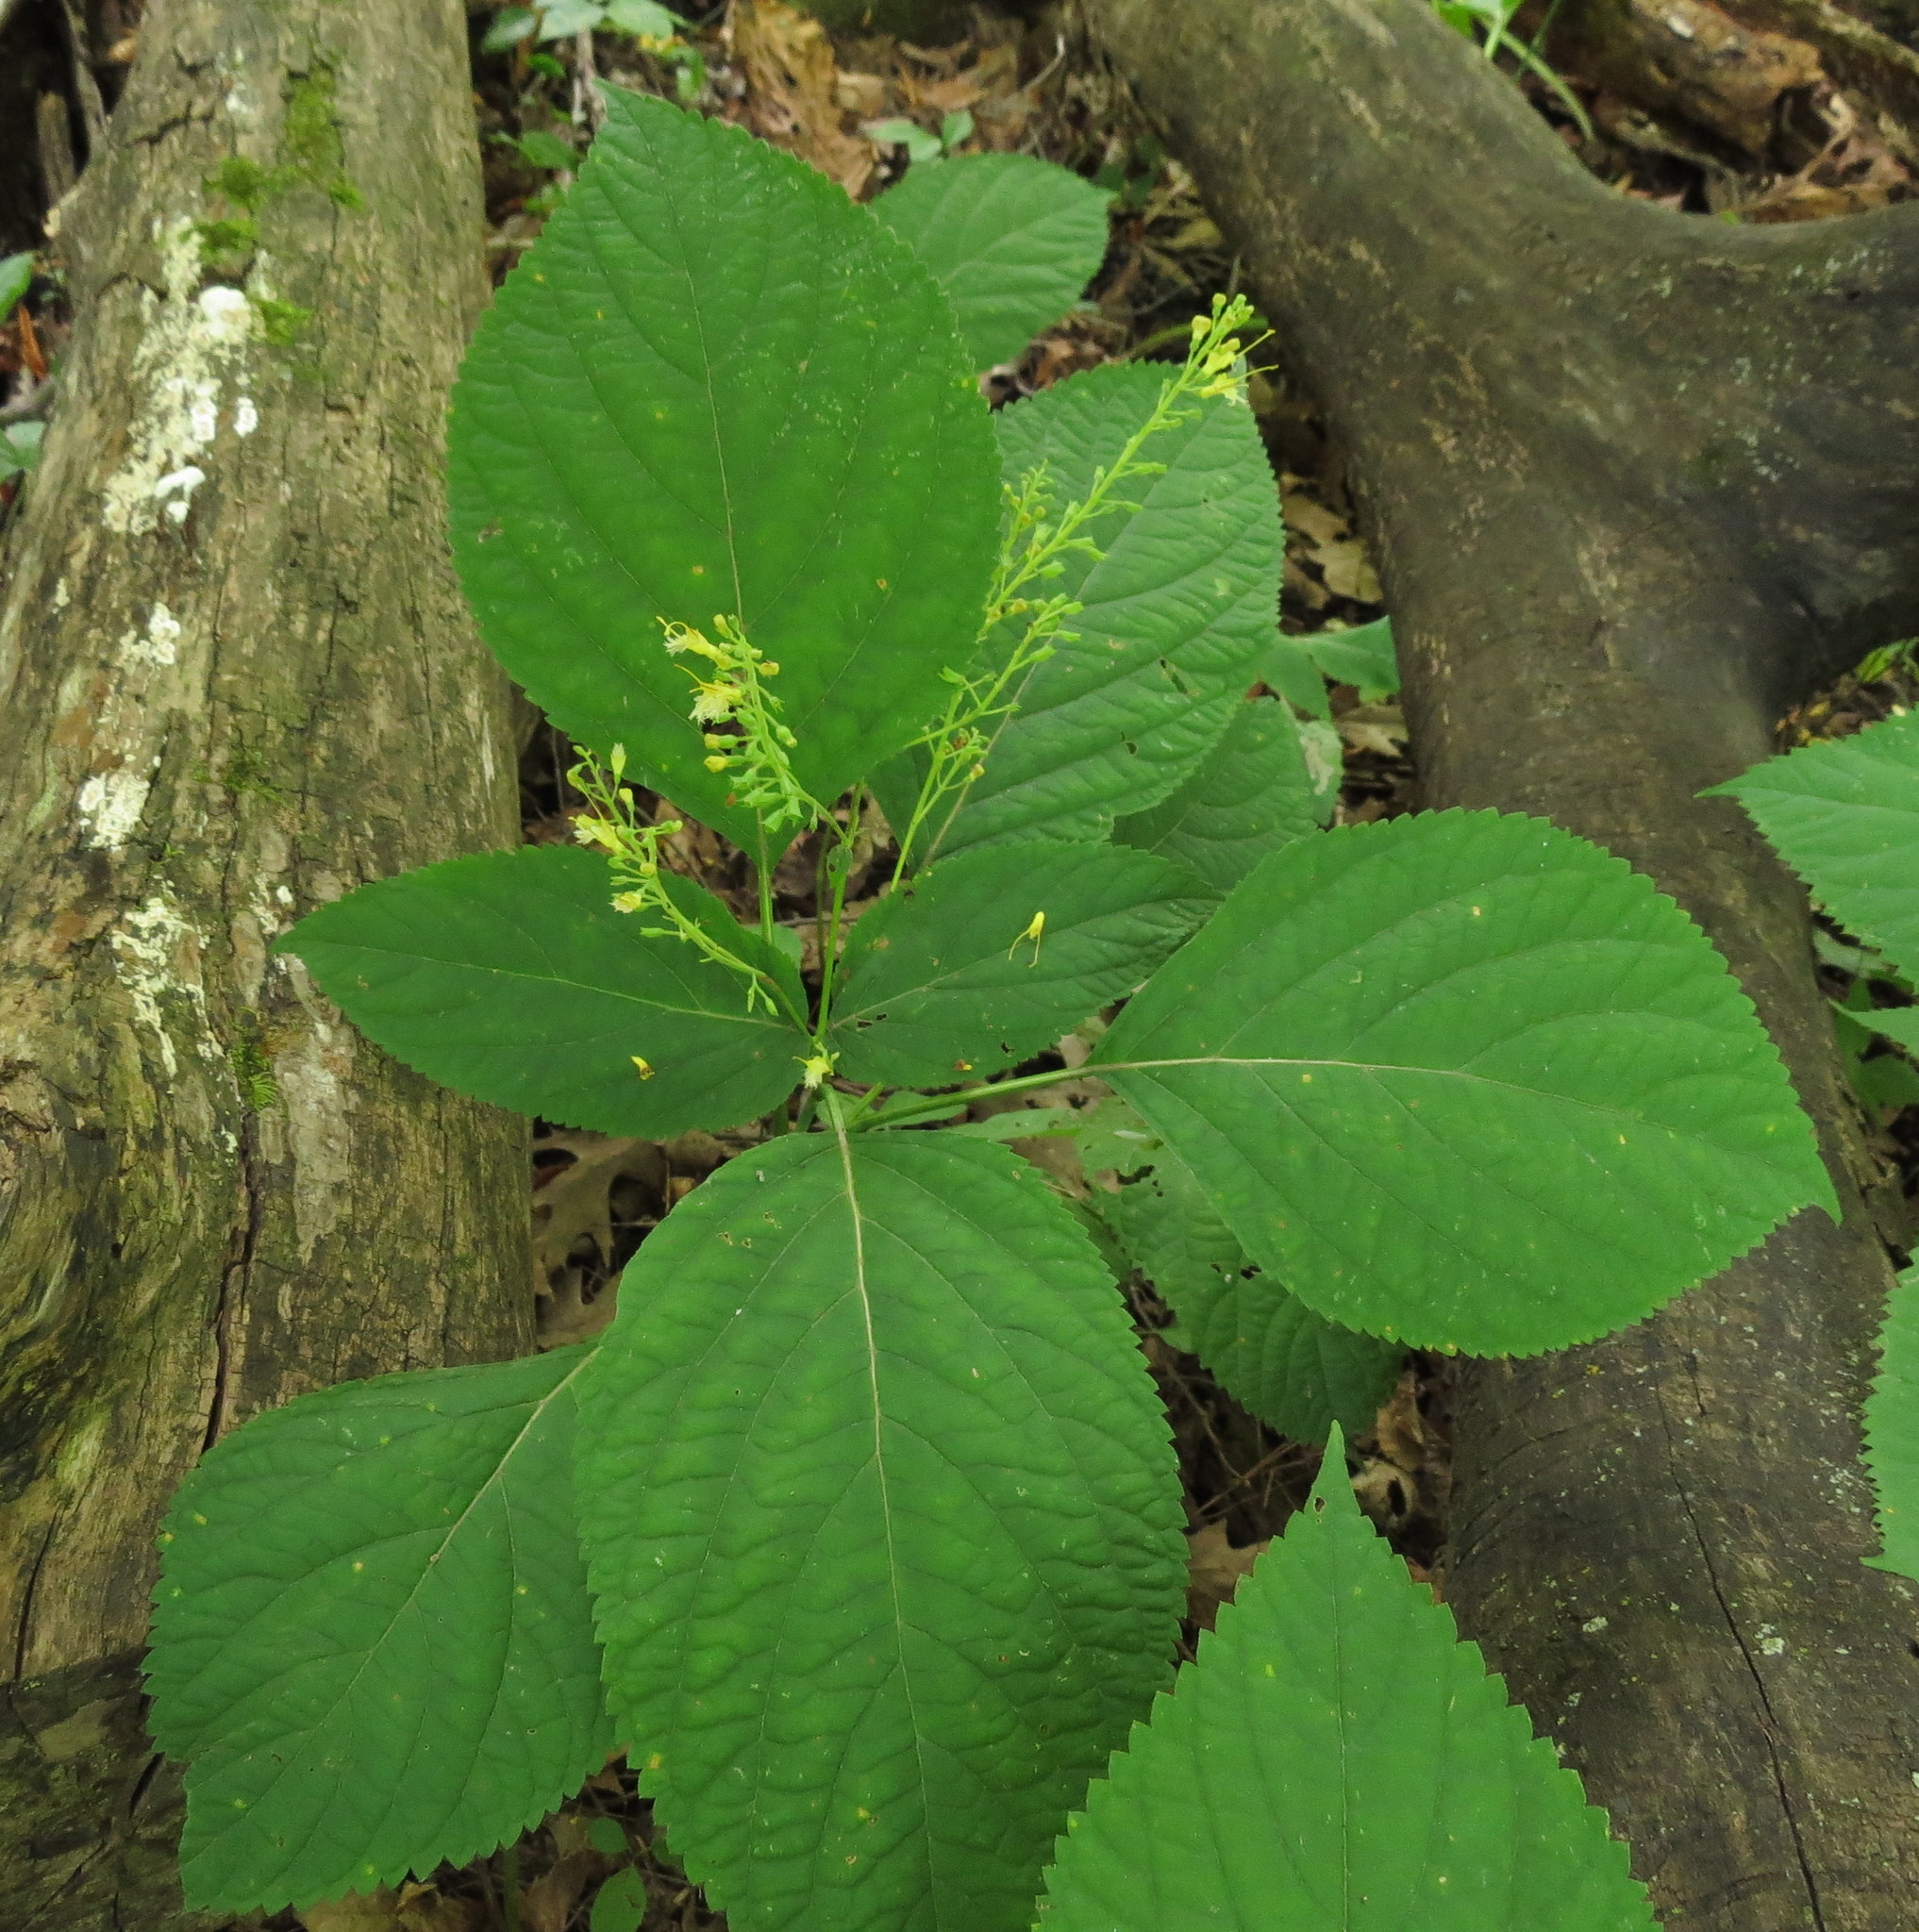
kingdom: Plantae
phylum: Tracheophyta
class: Magnoliopsida
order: Lamiales
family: Lamiaceae
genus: Collinsonia
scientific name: Collinsonia canadensis
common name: Northern horsebalm
